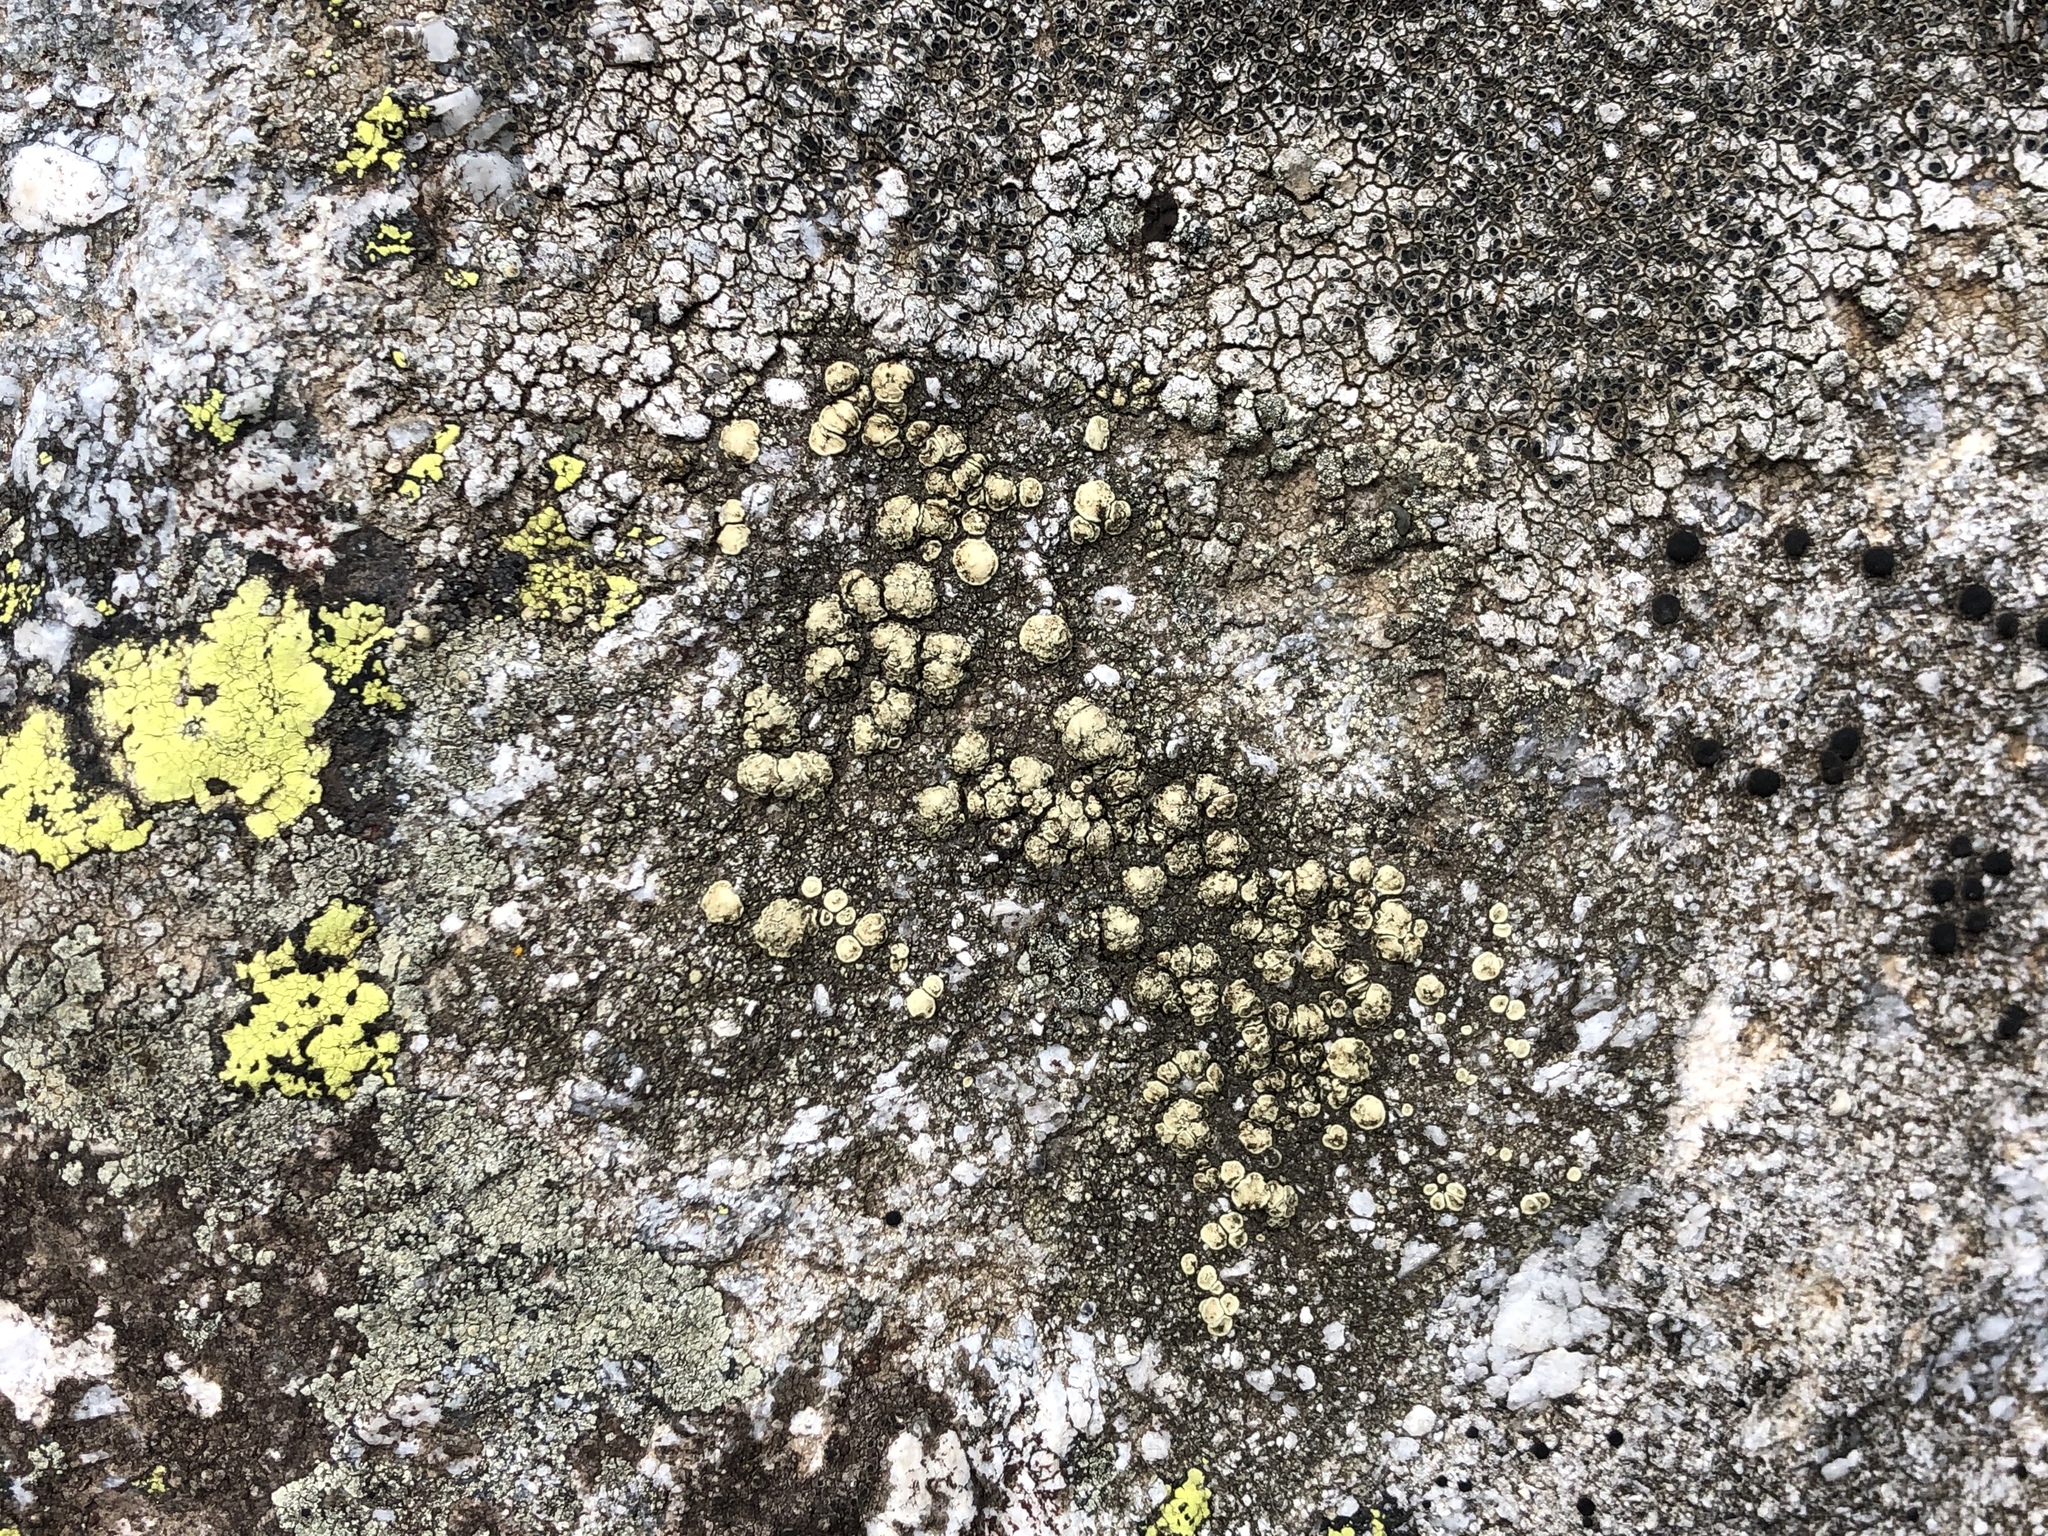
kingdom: Fungi
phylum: Ascomycota
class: Lecanoromycetes
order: Lecanorales
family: Lecanoraceae
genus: Lecanora
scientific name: Lecanora polytropa
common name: Granite-speck rim lichen
